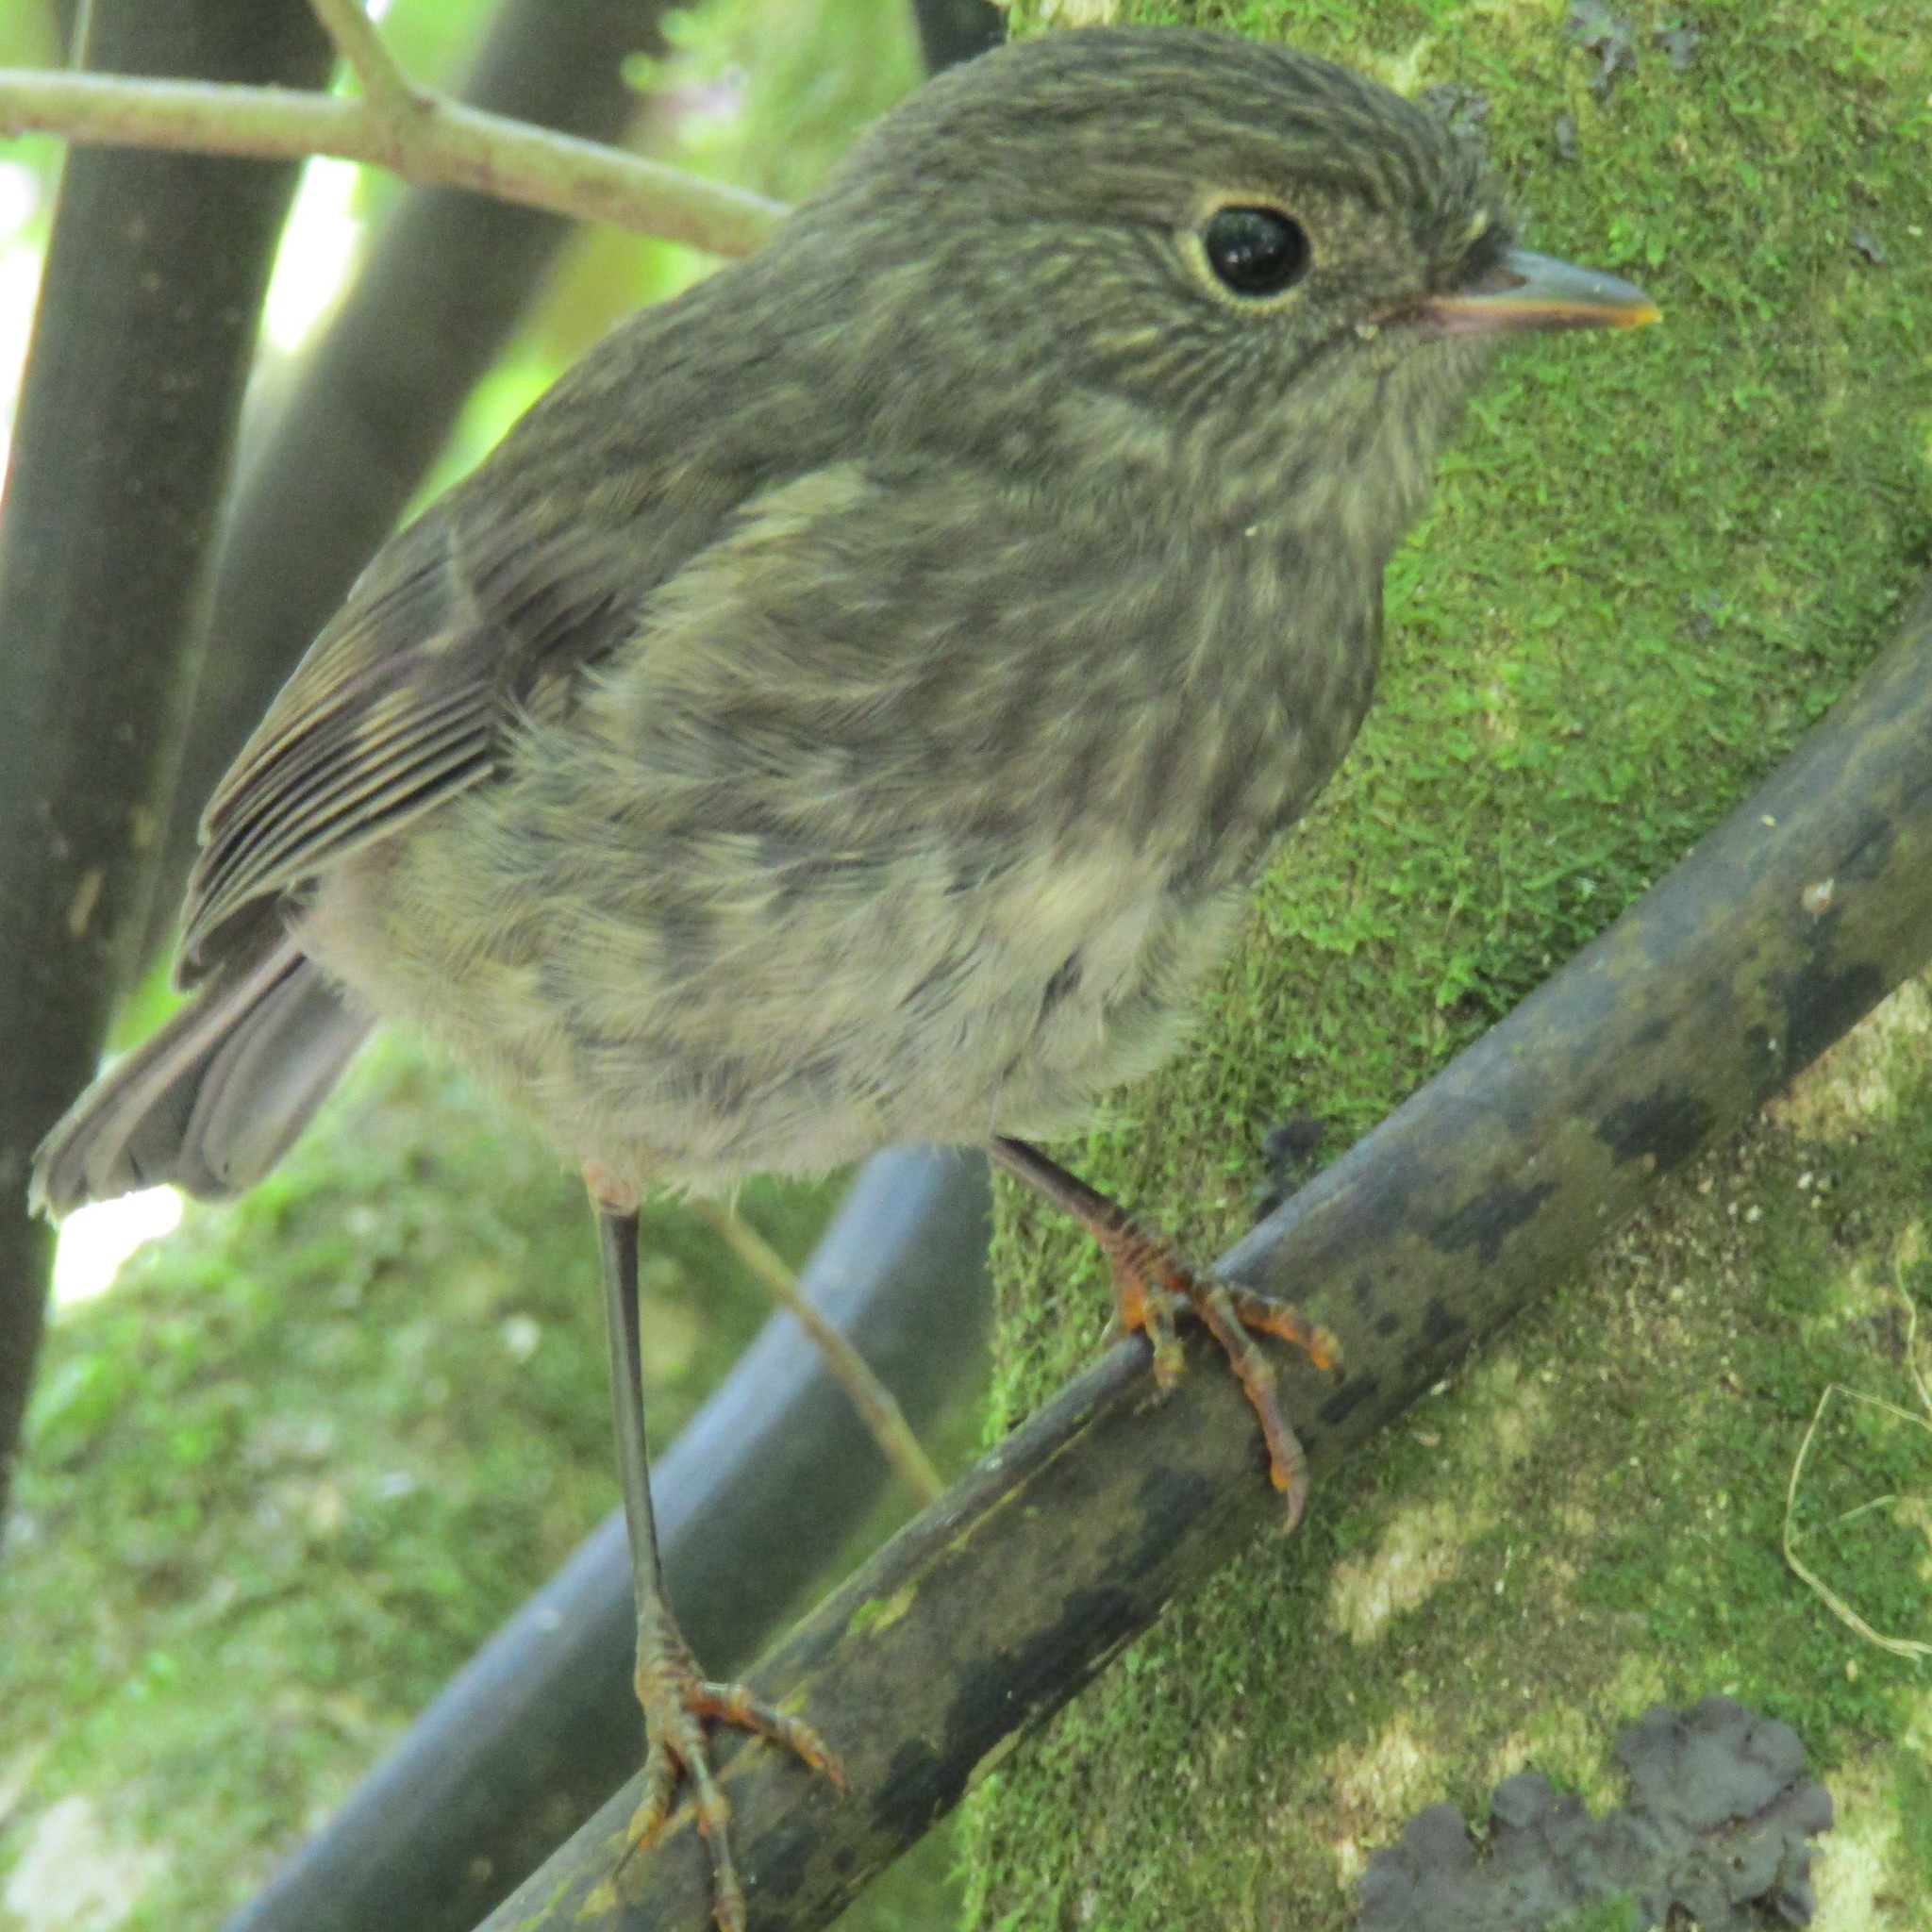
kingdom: Animalia
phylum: Chordata
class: Aves
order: Passeriformes
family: Petroicidae
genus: Petroica
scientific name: Petroica australis
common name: New zealand robin
